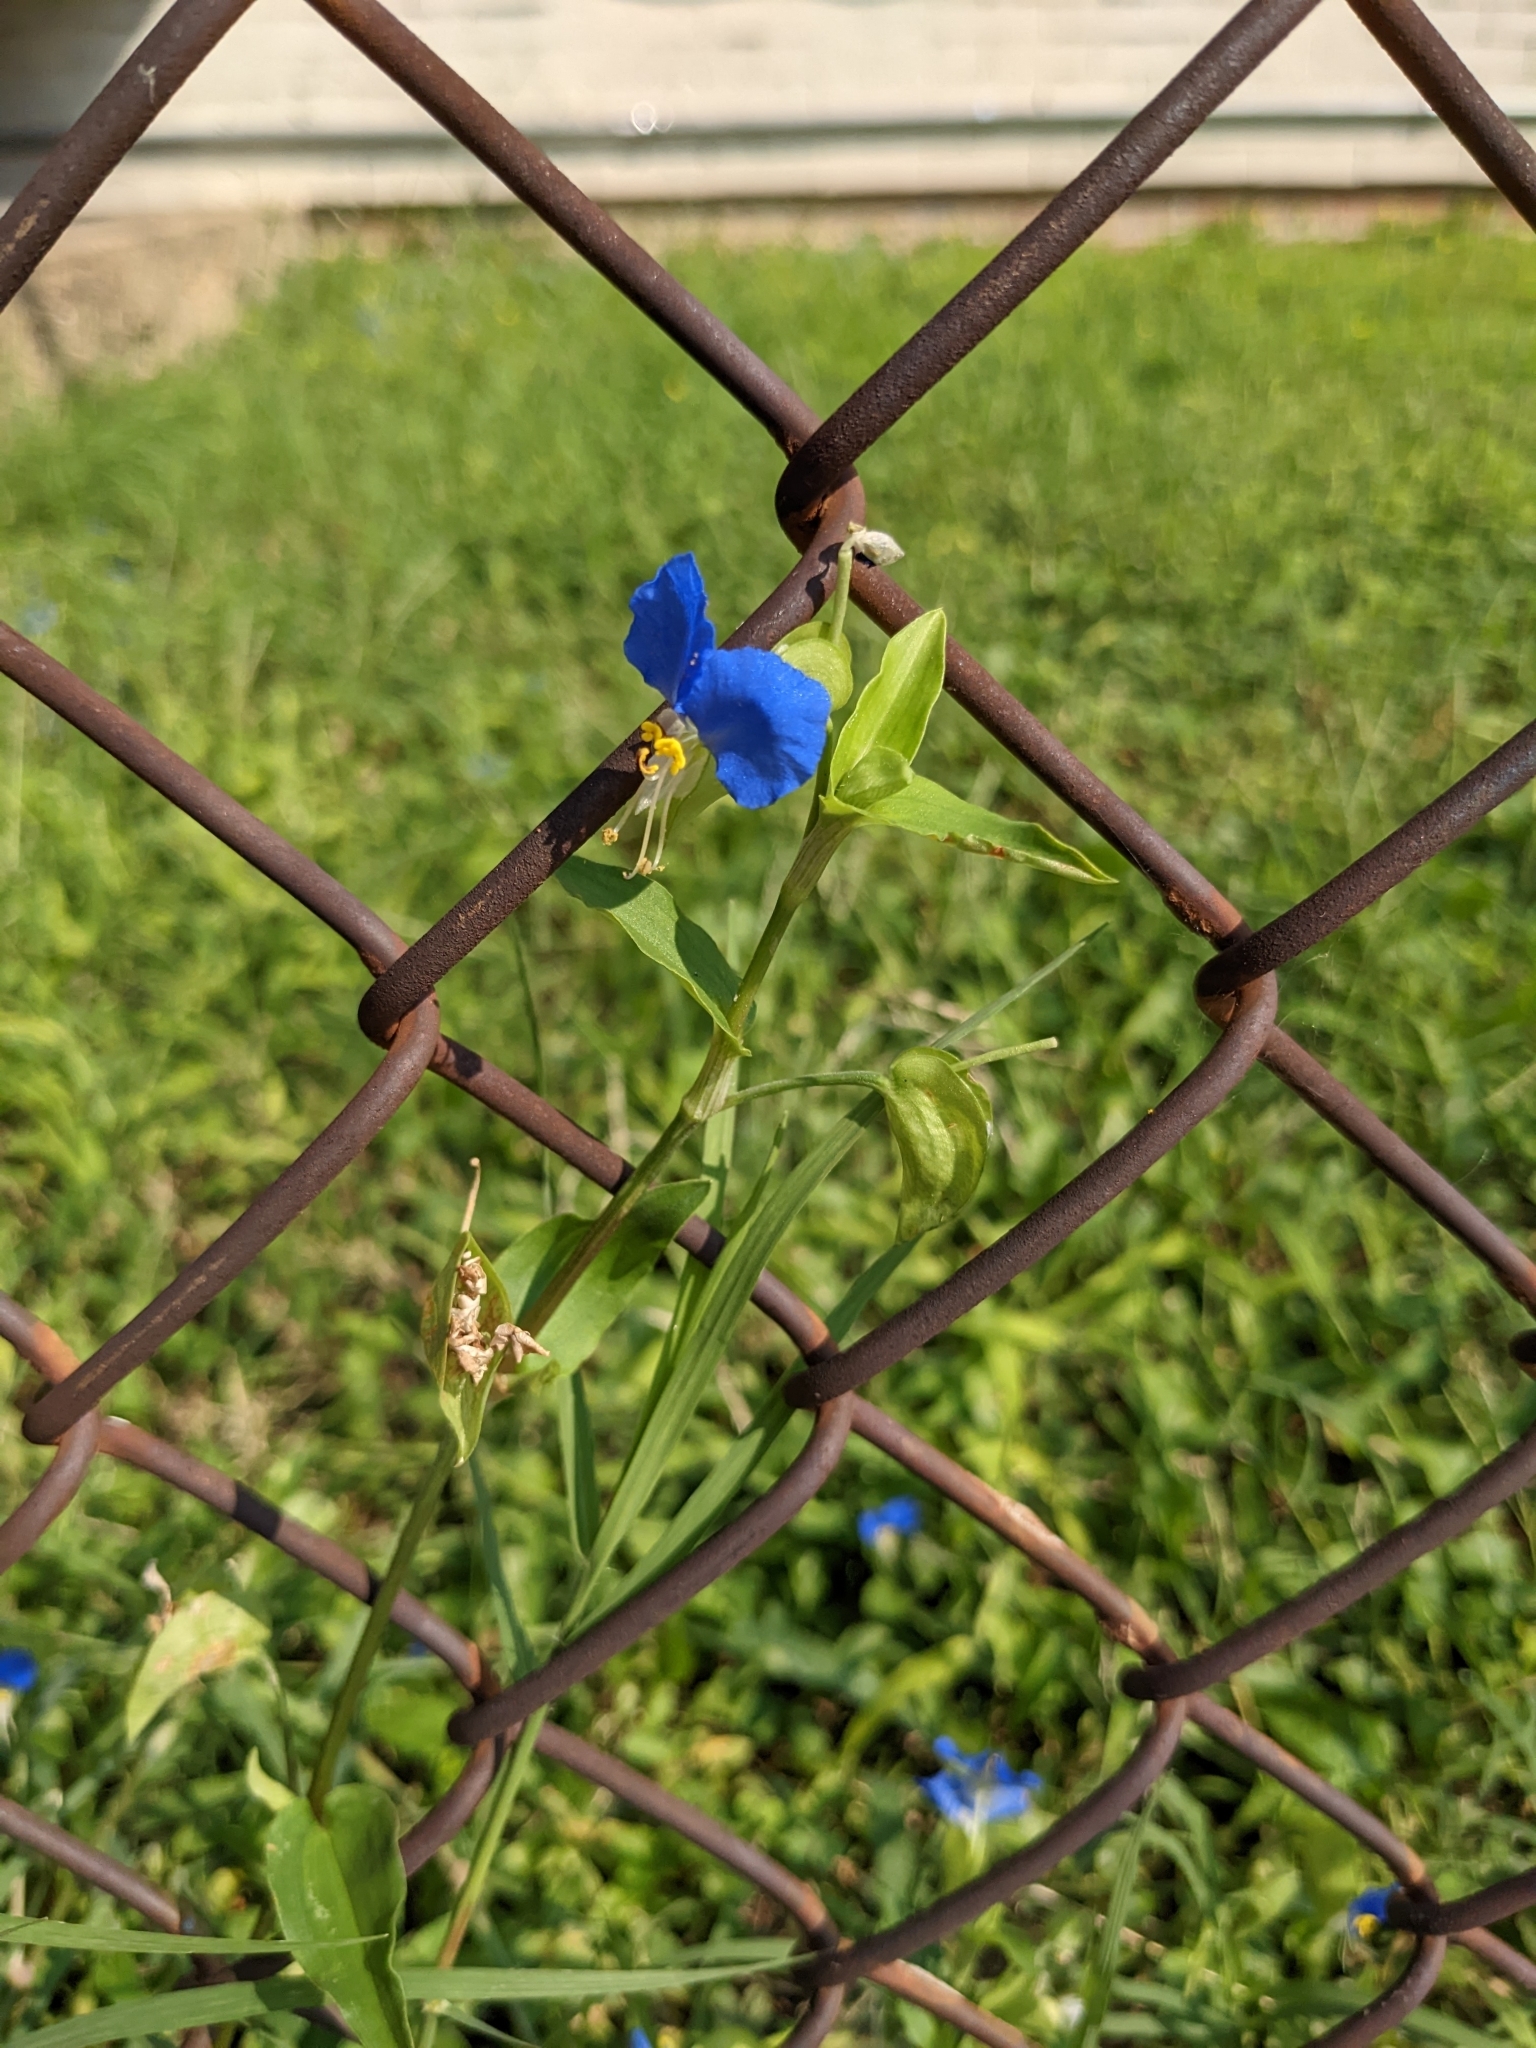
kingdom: Plantae
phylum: Tracheophyta
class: Liliopsida
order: Commelinales
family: Commelinaceae
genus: Commelina
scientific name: Commelina communis
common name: Asiatic dayflower
